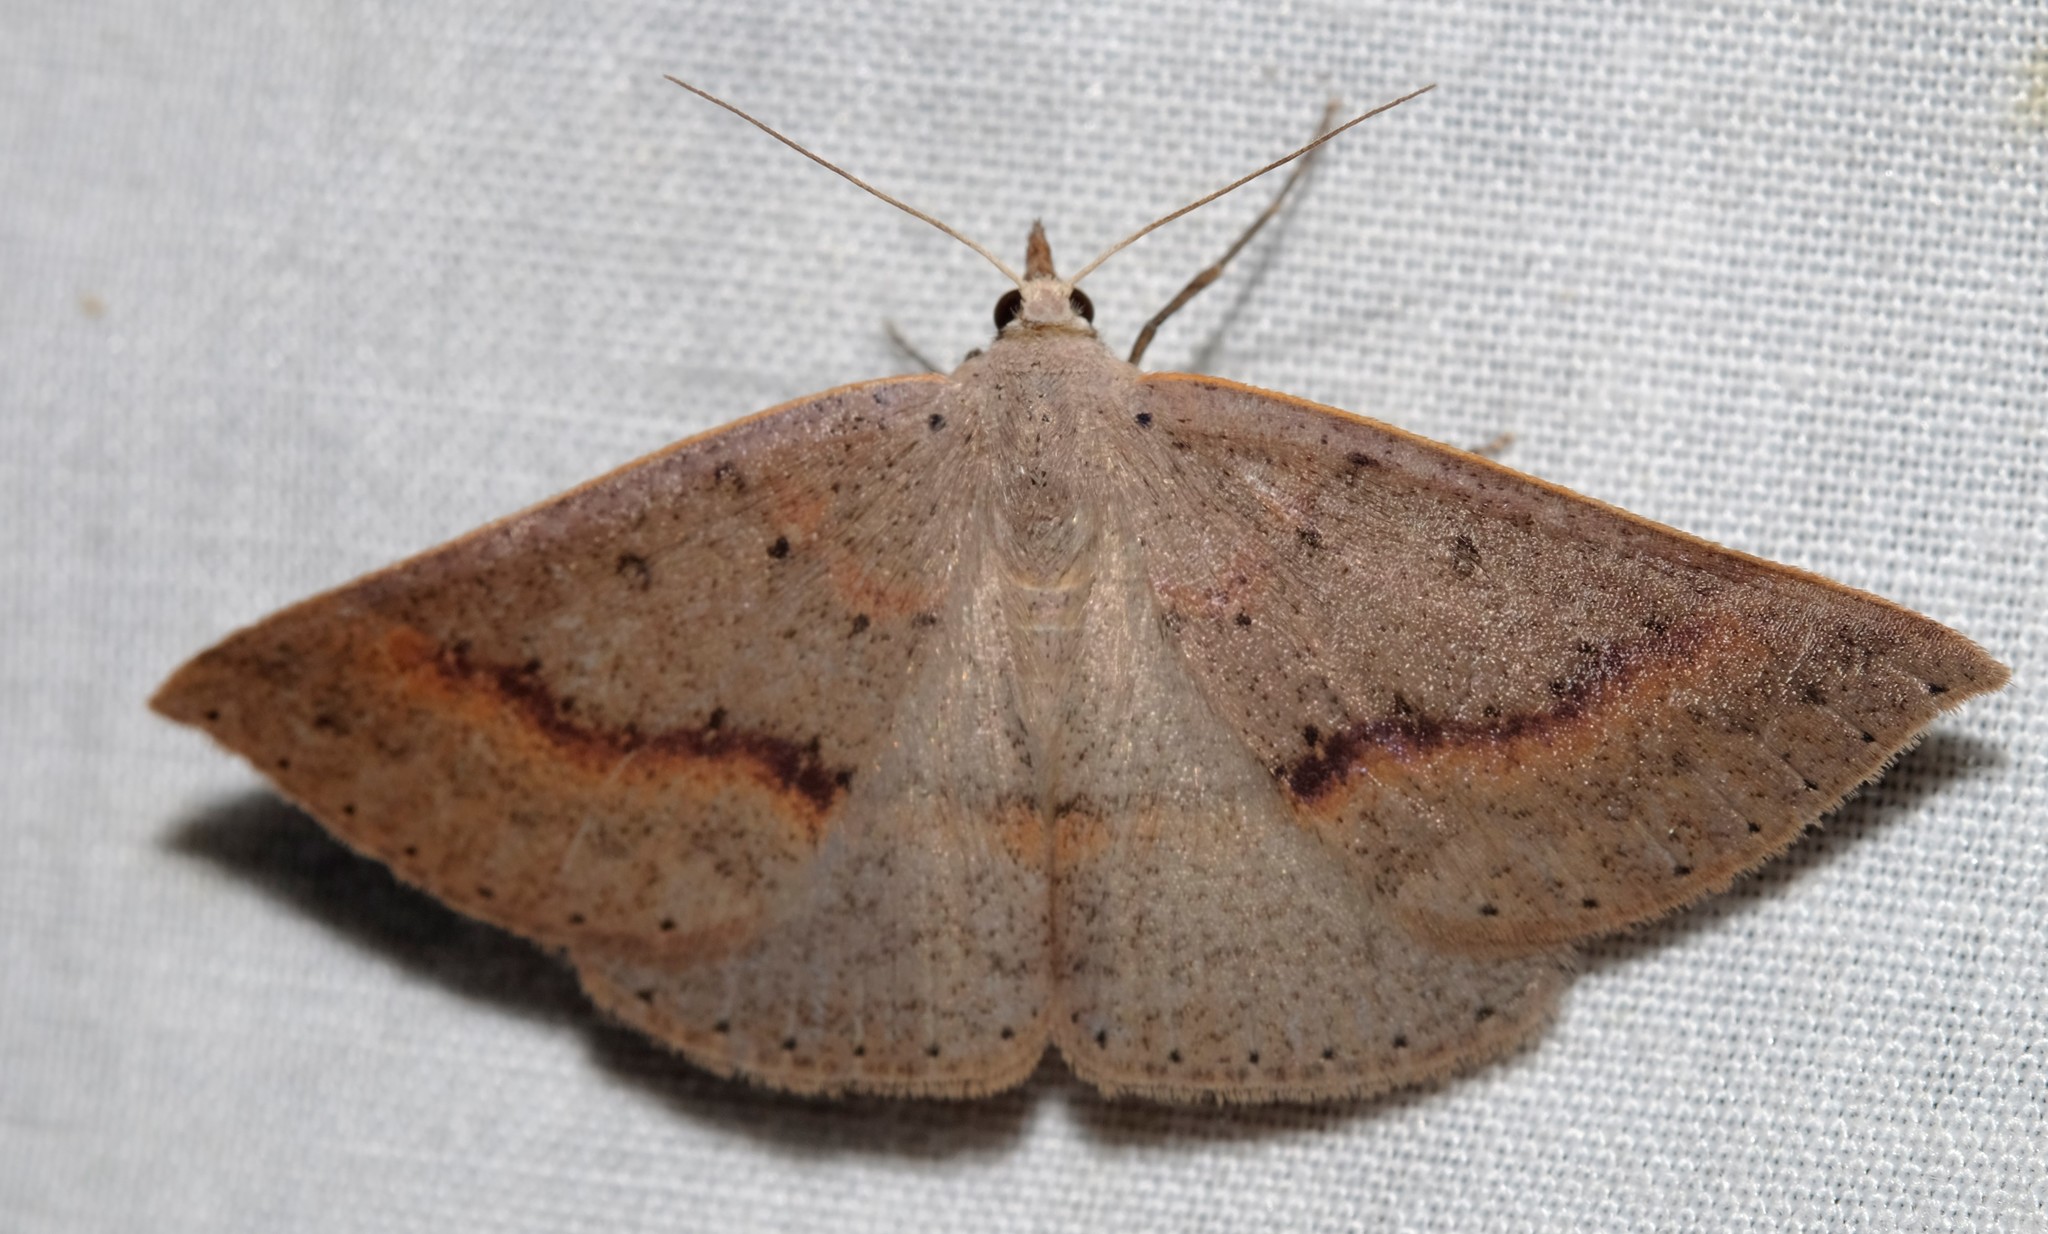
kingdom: Animalia
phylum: Arthropoda
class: Insecta
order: Lepidoptera
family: Geometridae
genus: Nearcha
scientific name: Nearcha ursaria
